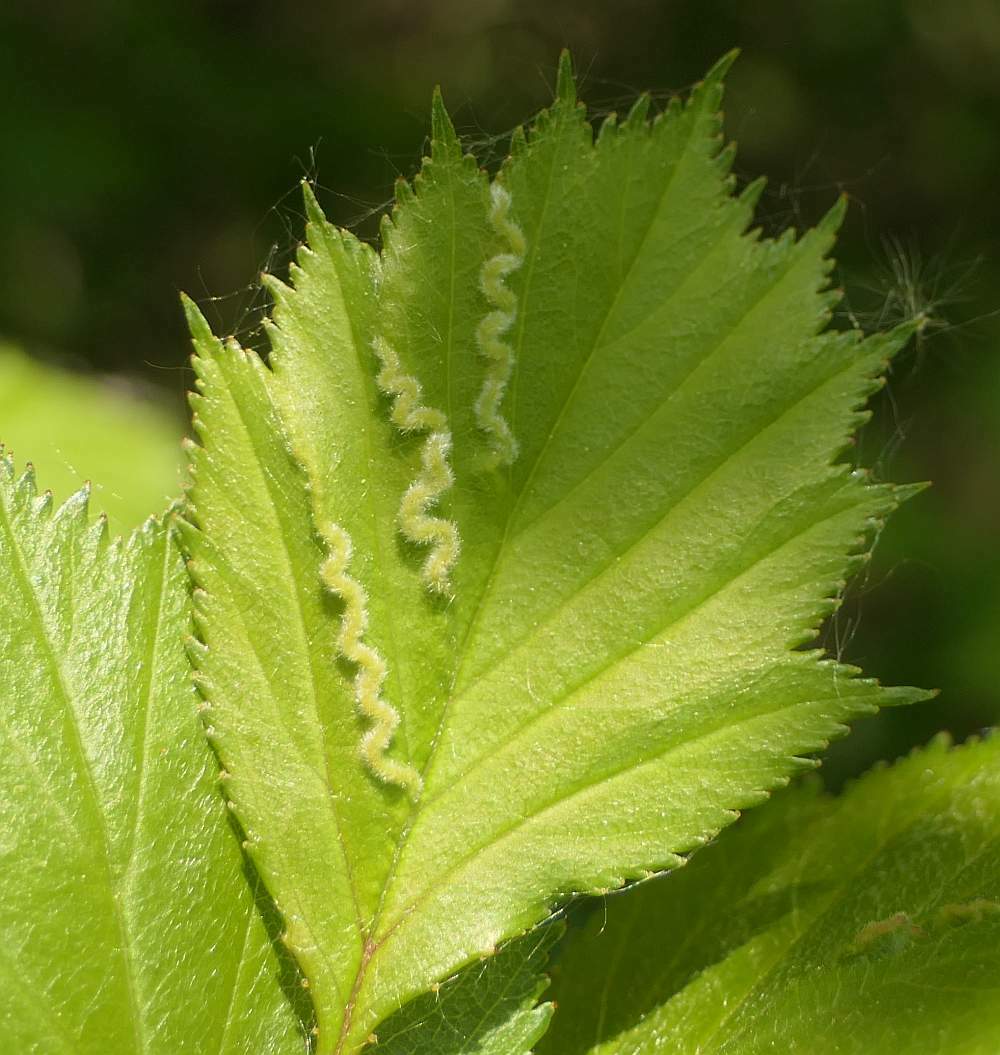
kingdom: Animalia
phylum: Arthropoda
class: Insecta
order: Diptera
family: Cecidomyiidae
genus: Blaesodiplosis
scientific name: Blaesodiplosis crataegifolia
